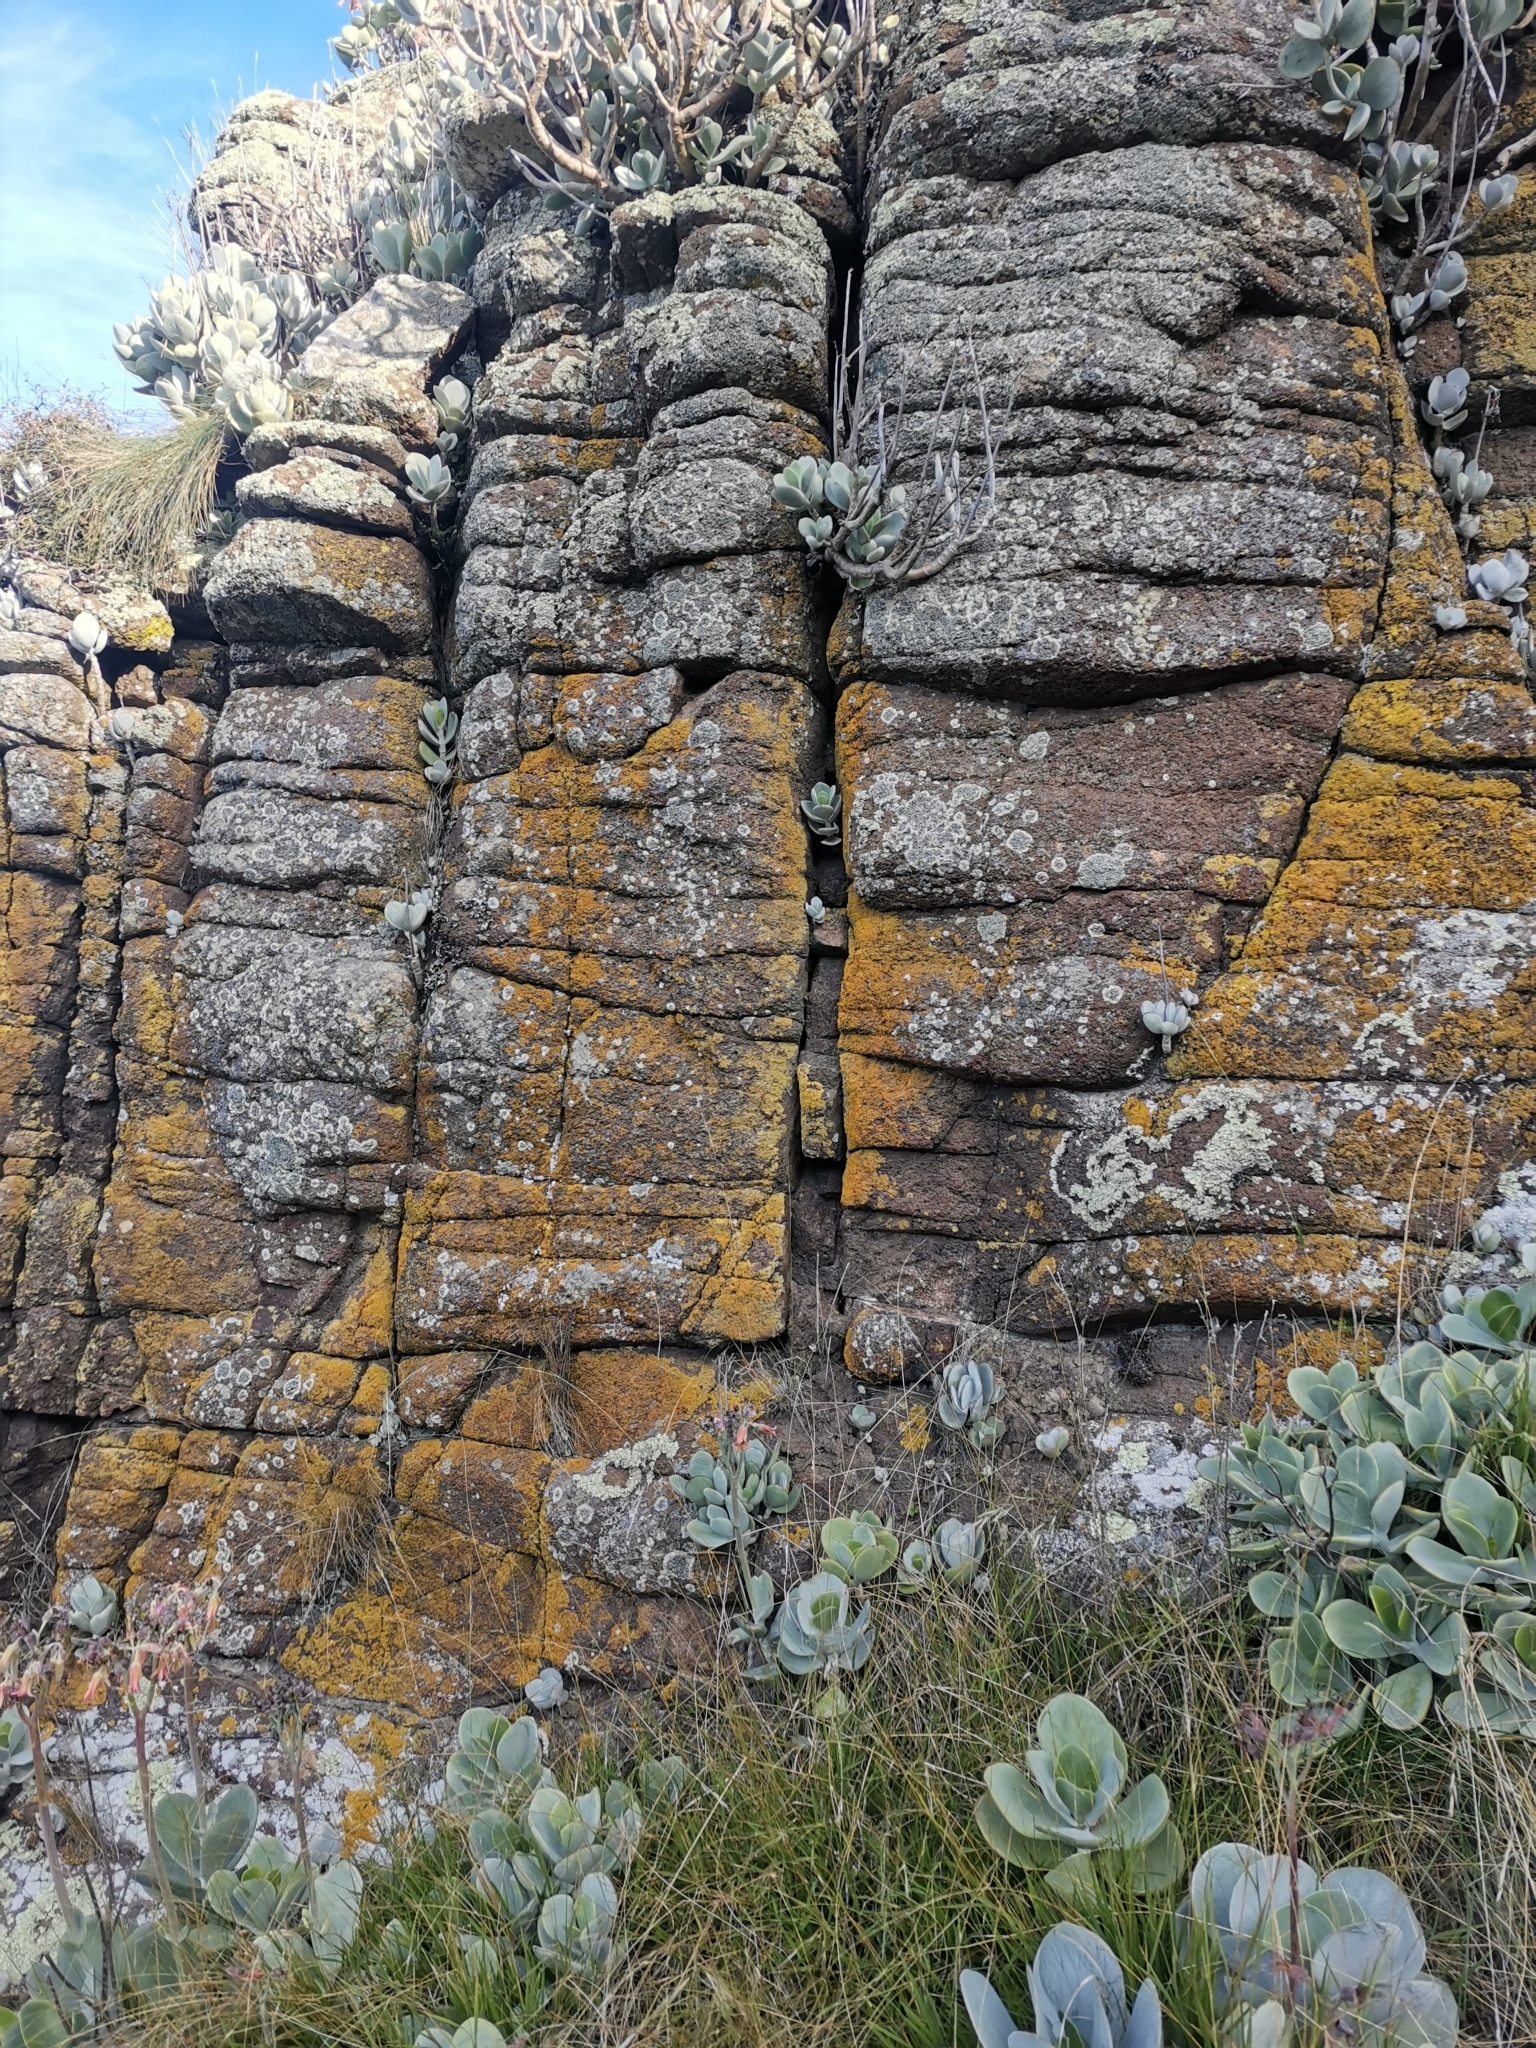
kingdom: Plantae
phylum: Tracheophyta
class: Magnoliopsida
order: Saxifragales
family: Crassulaceae
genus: Cotyledon
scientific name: Cotyledon orbiculata
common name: Pig's ear
